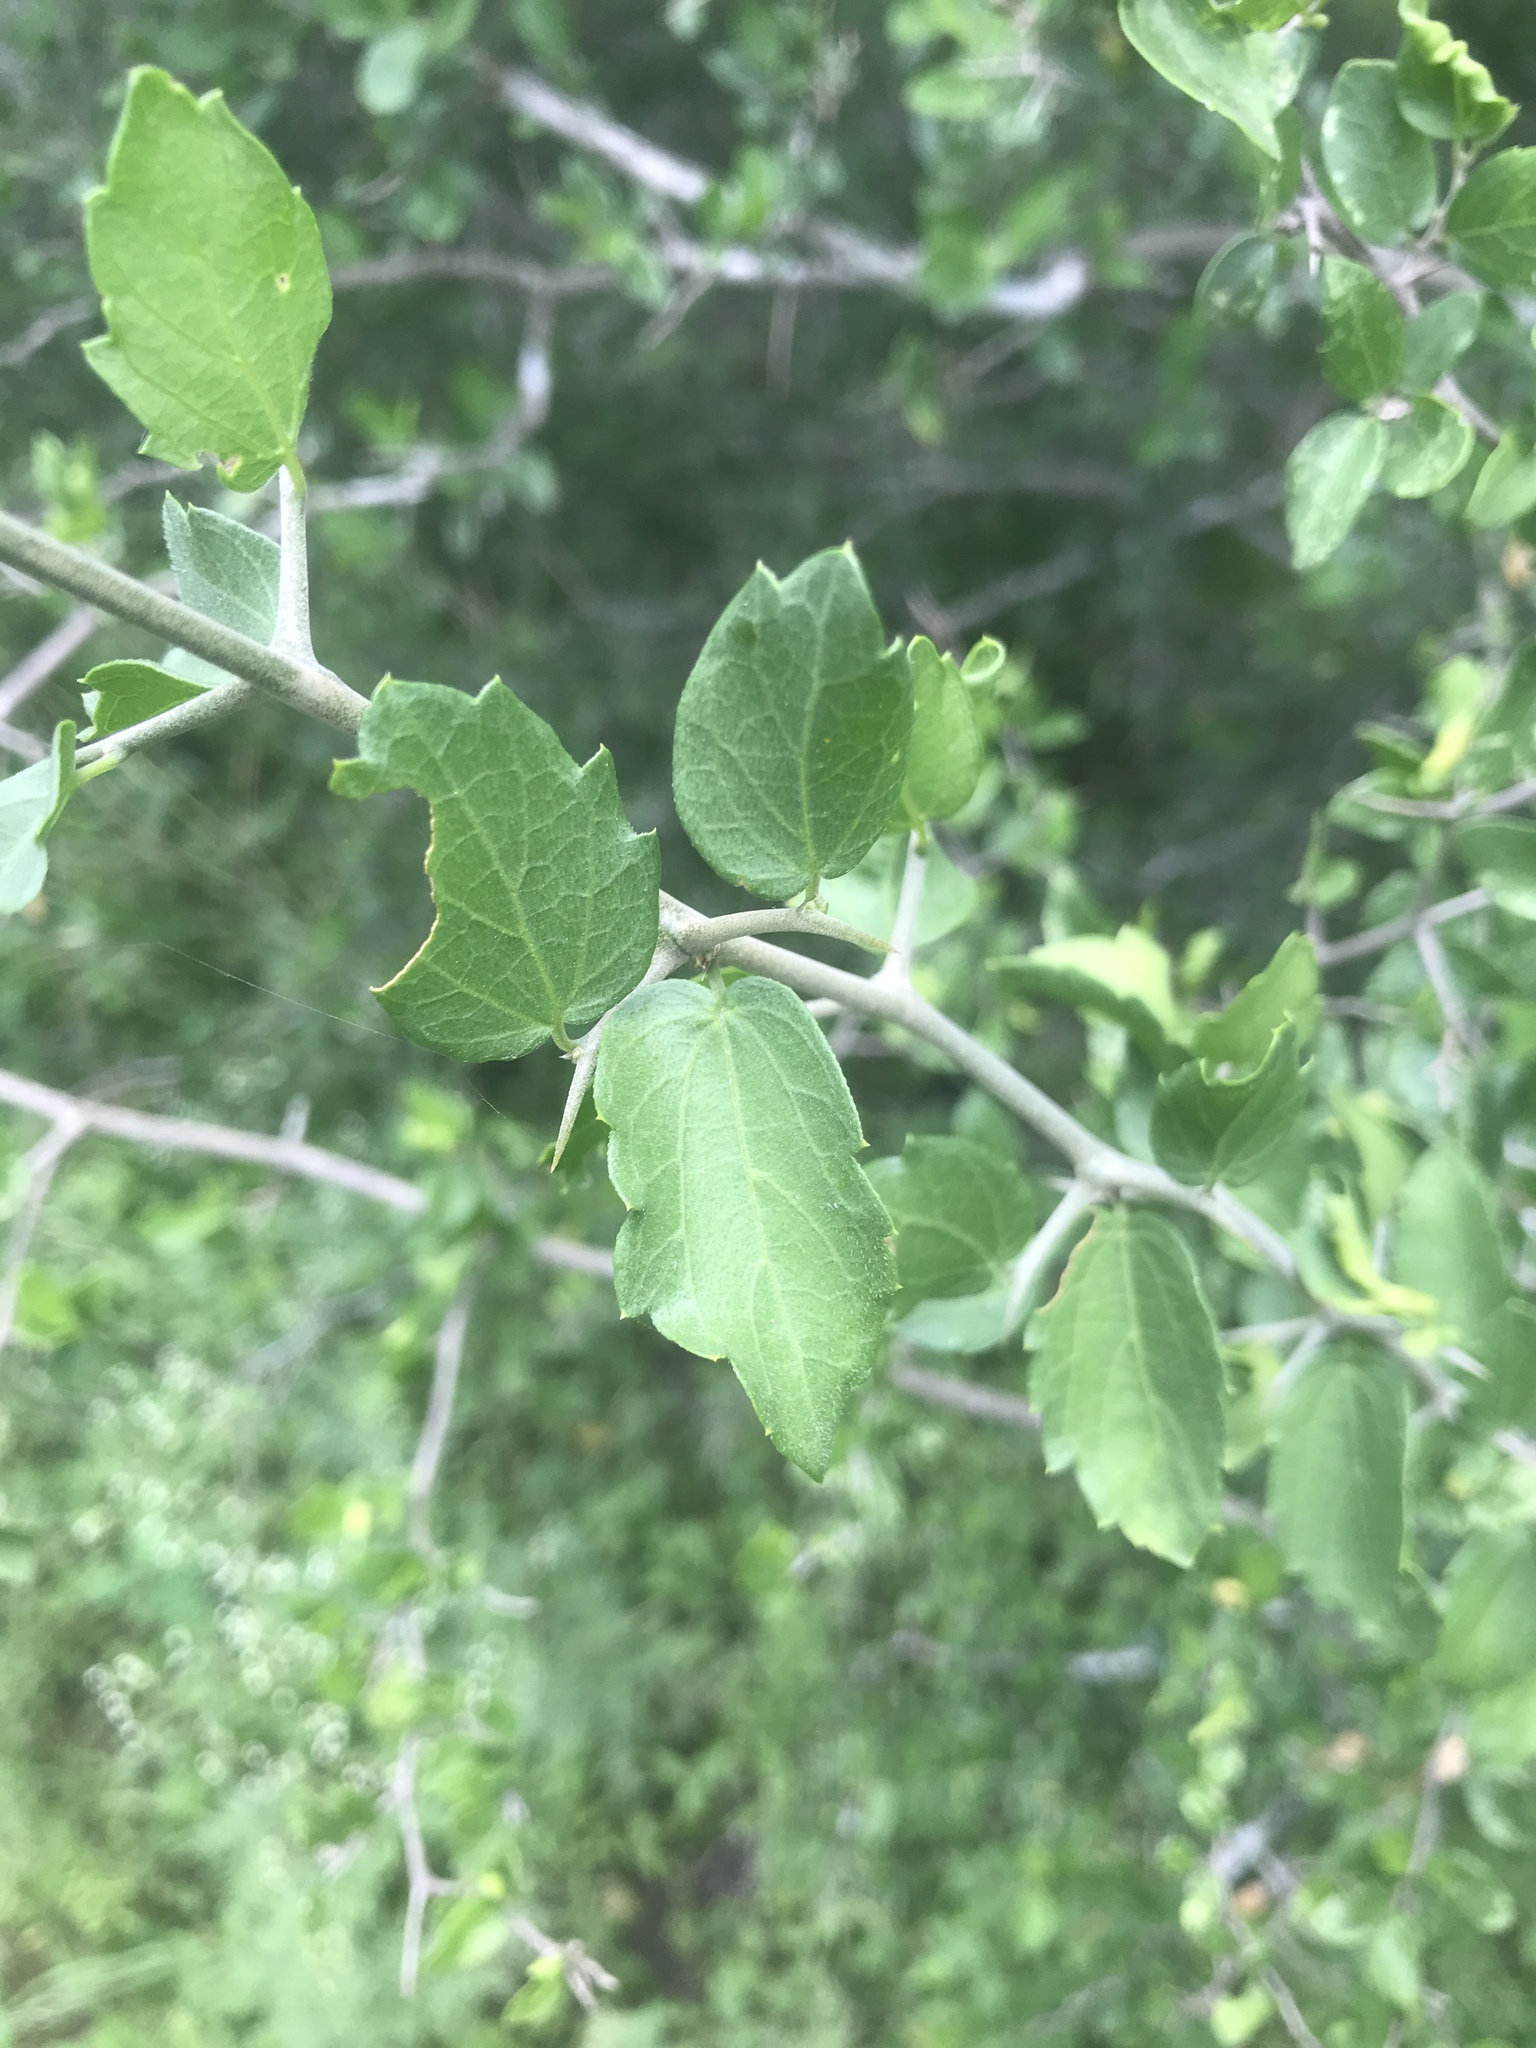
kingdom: Plantae
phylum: Tracheophyta
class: Magnoliopsida
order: Rosales
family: Cannabaceae
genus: Celtis
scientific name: Celtis pallida
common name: Desert hackberry
